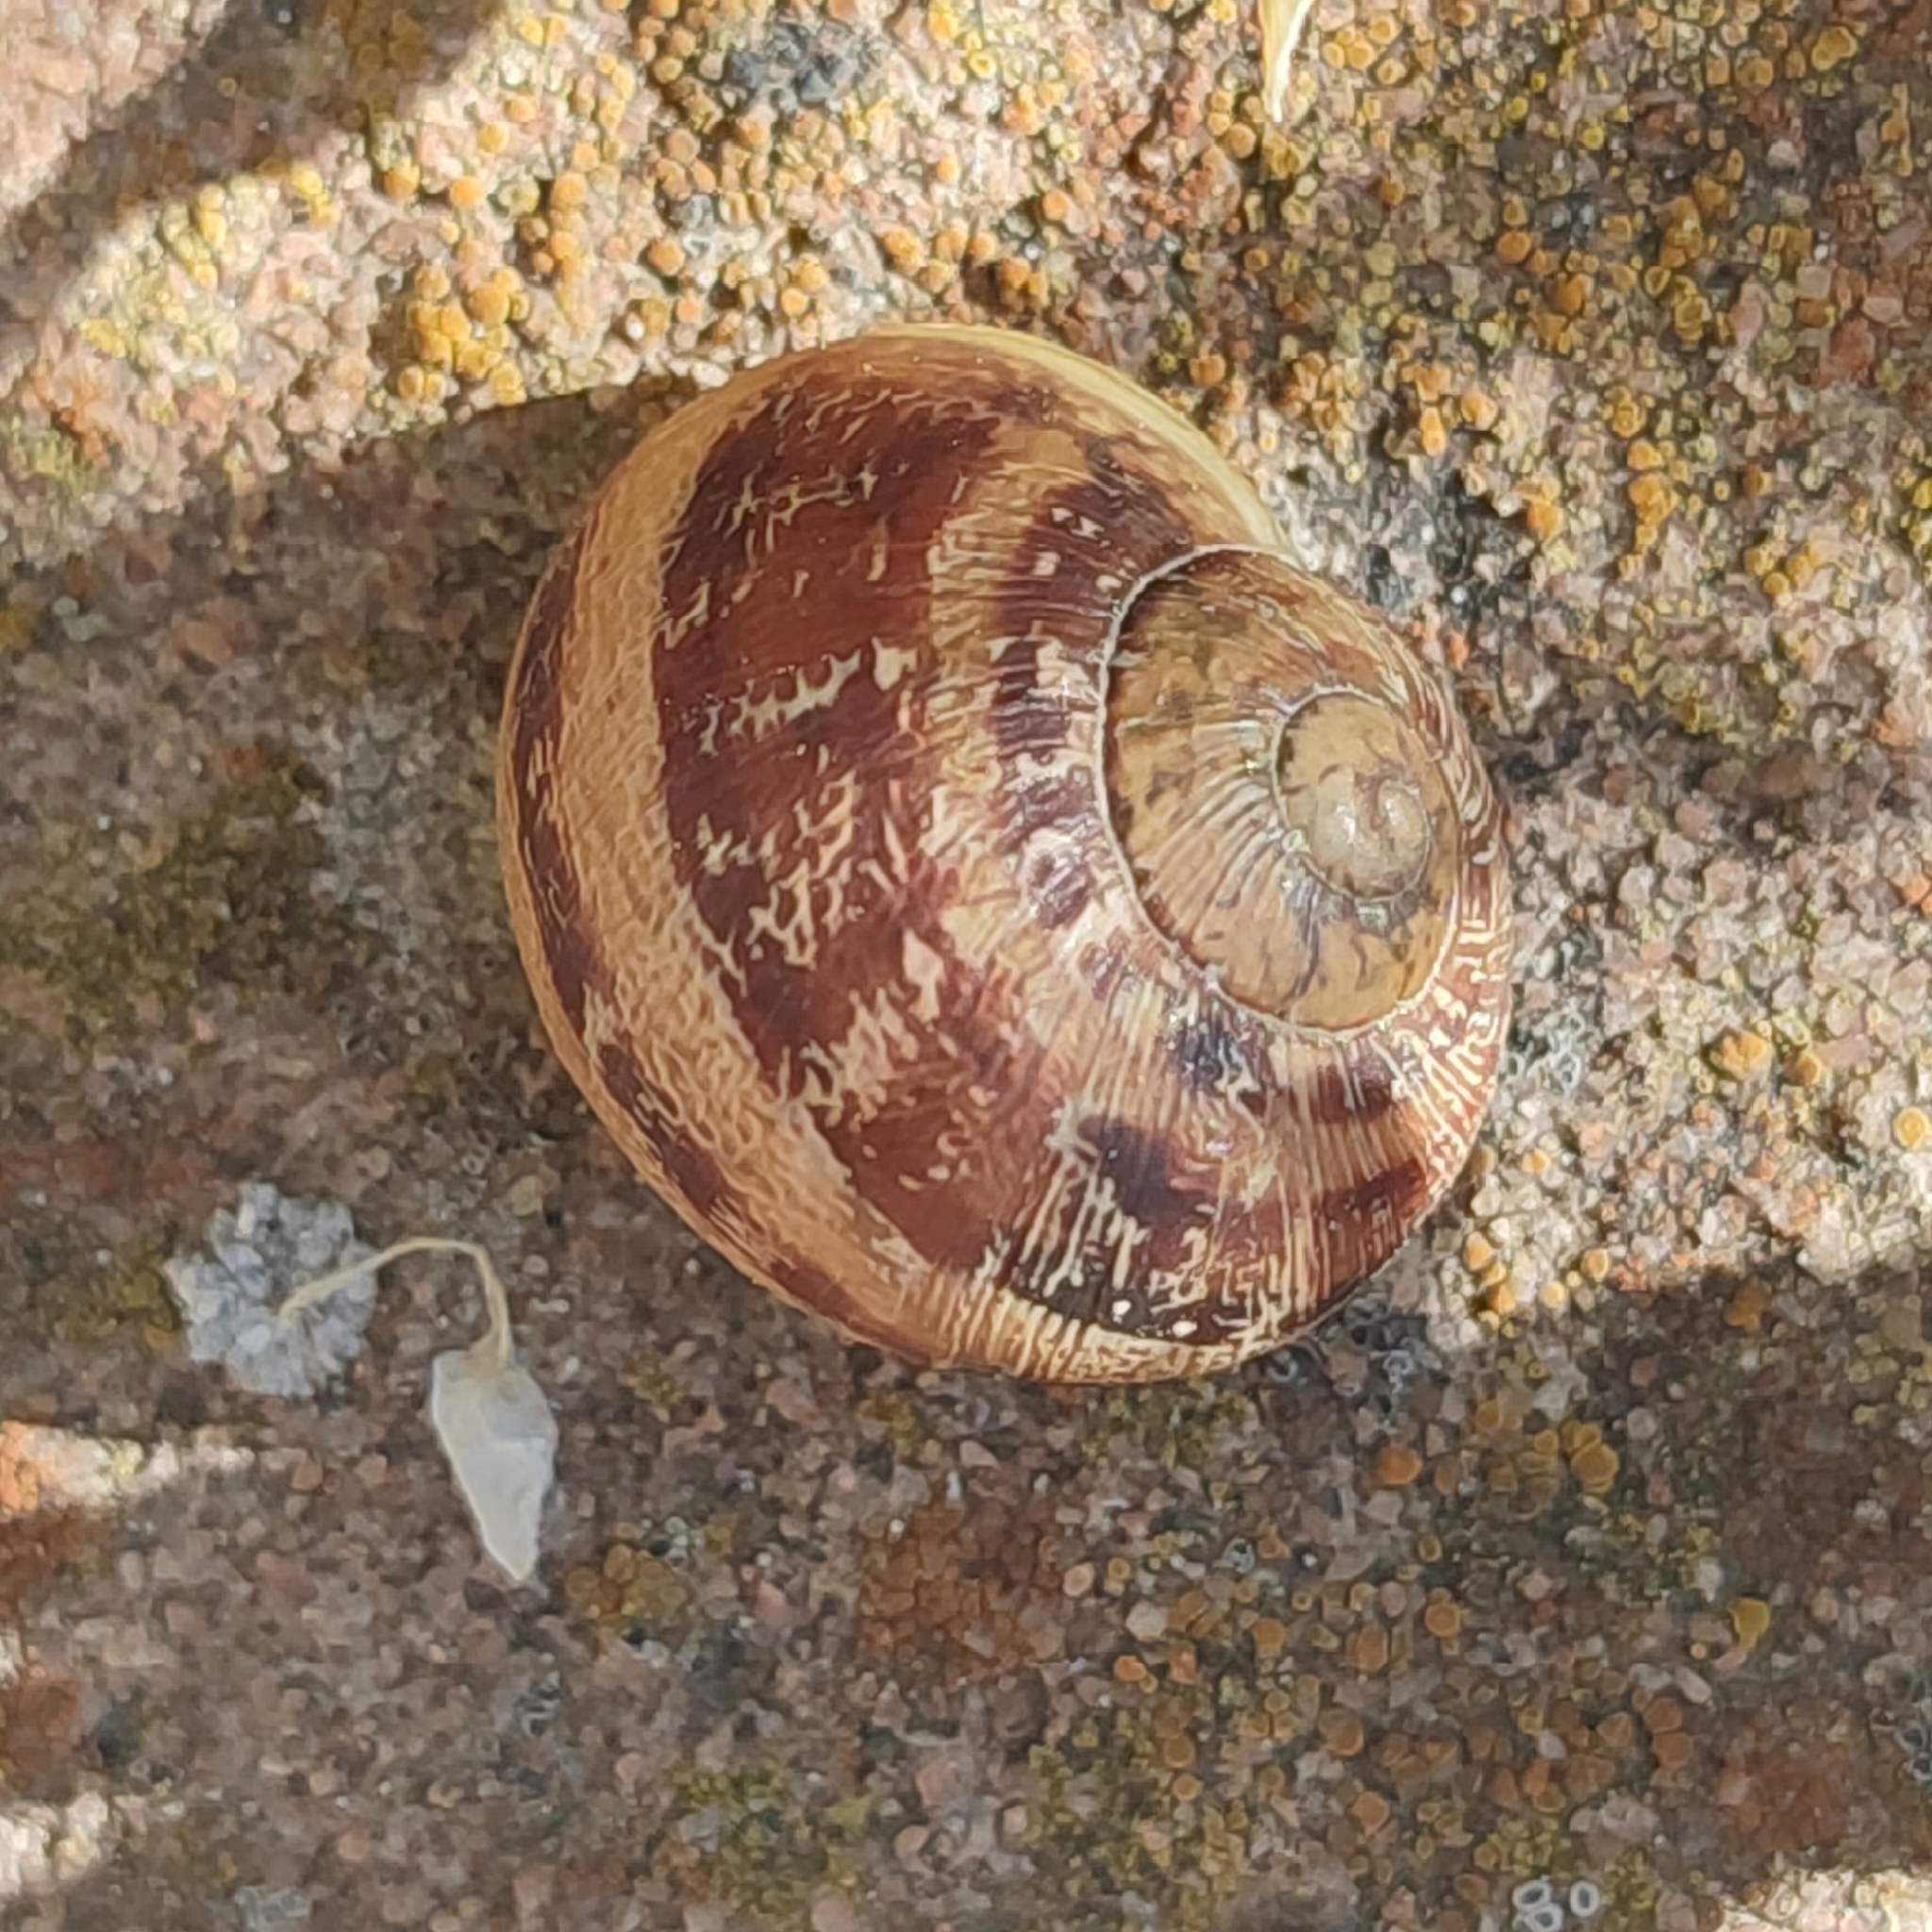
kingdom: Animalia
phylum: Mollusca
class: Gastropoda
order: Stylommatophora
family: Helicidae
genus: Cornu
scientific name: Cornu aspersum
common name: Brown garden snail
